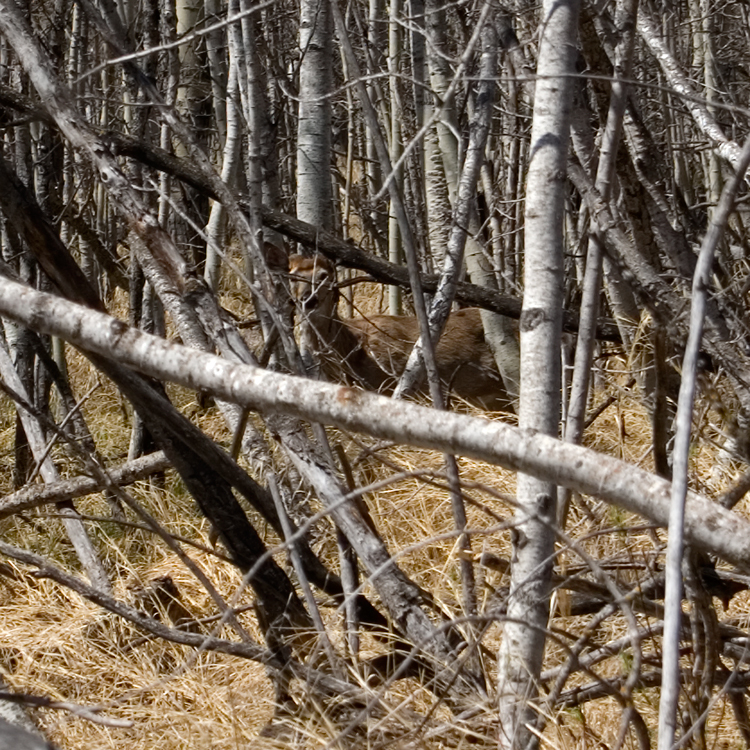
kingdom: Animalia
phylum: Chordata
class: Mammalia
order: Artiodactyla
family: Cervidae
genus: Odocoileus
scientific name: Odocoileus virginianus
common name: White-tailed deer
